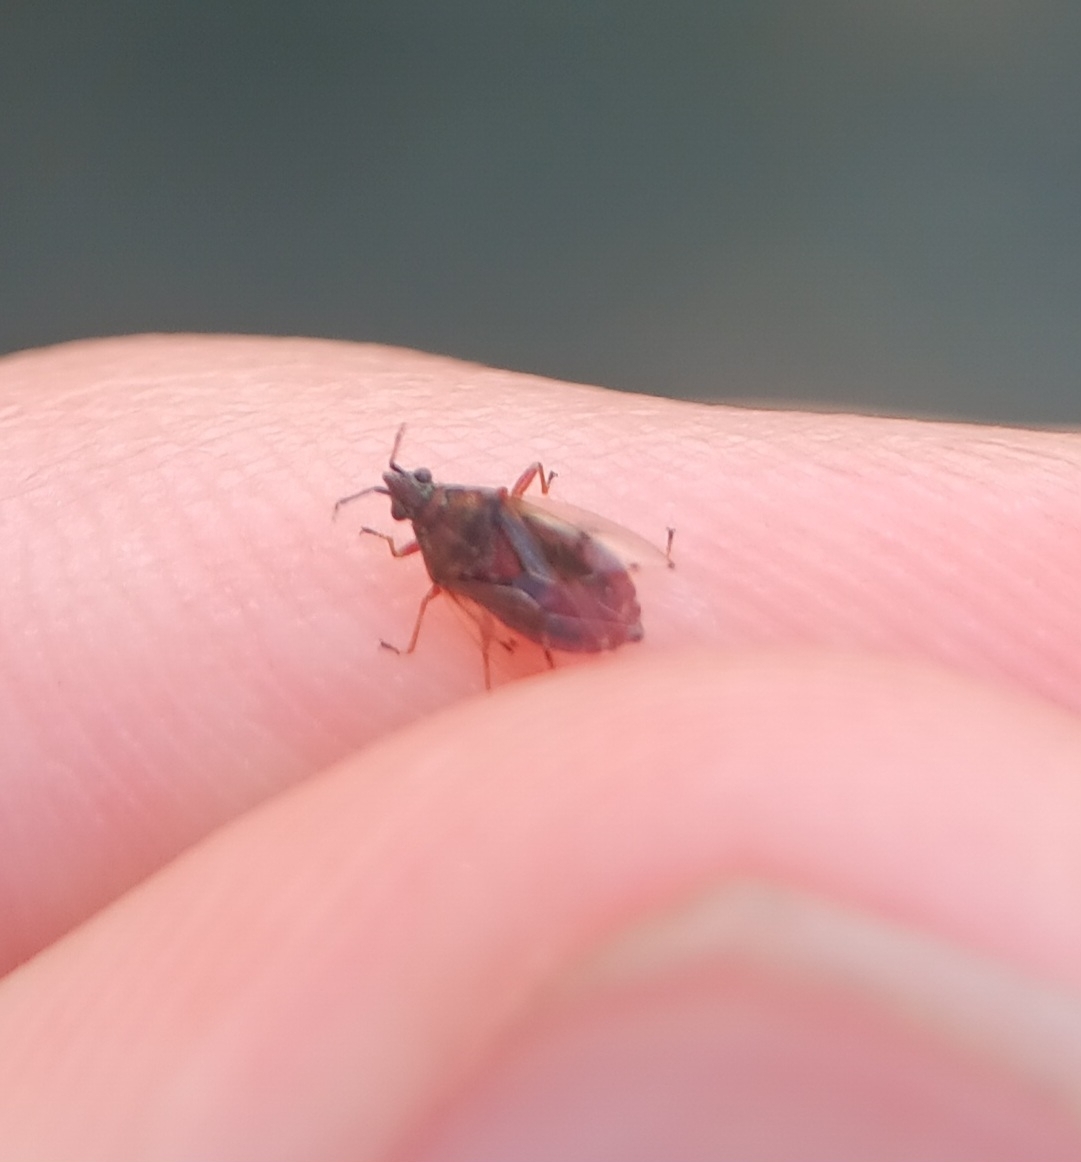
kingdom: Animalia
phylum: Arthropoda
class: Insecta
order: Hemiptera
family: Lygaeidae
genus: Kleidocerys
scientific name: Kleidocerys resedae
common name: Birch catkin bug
